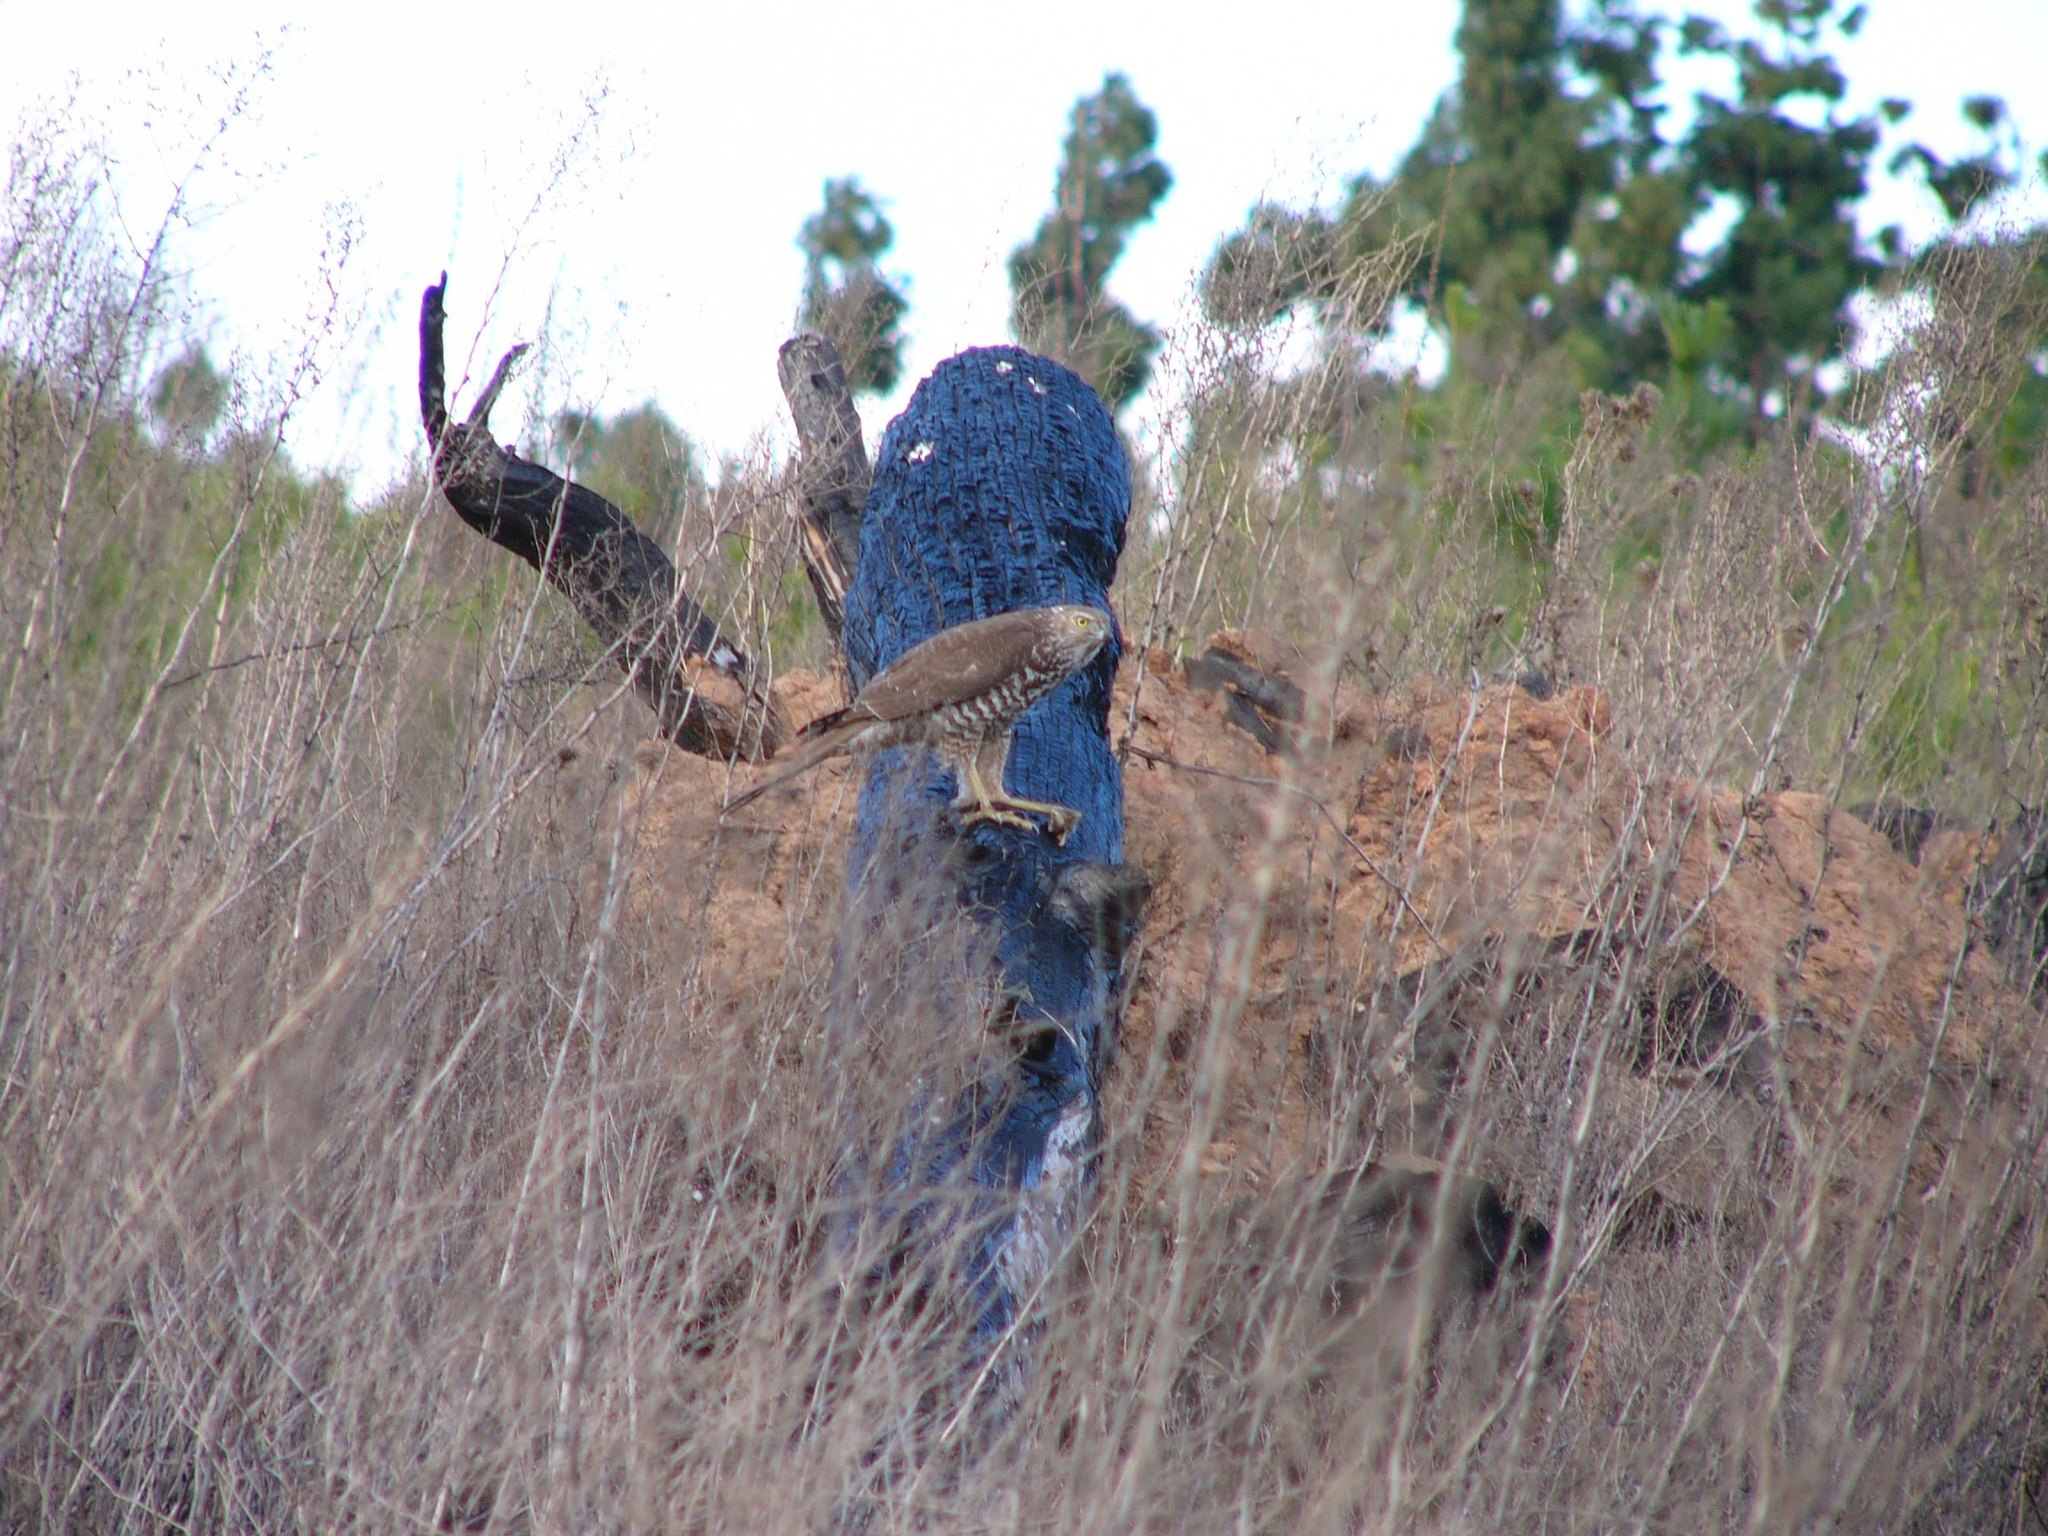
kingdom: Animalia
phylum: Chordata
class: Aves
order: Accipitriformes
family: Accipitridae
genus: Accipiter
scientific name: Accipiter fasciatus
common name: Brown goshawk
